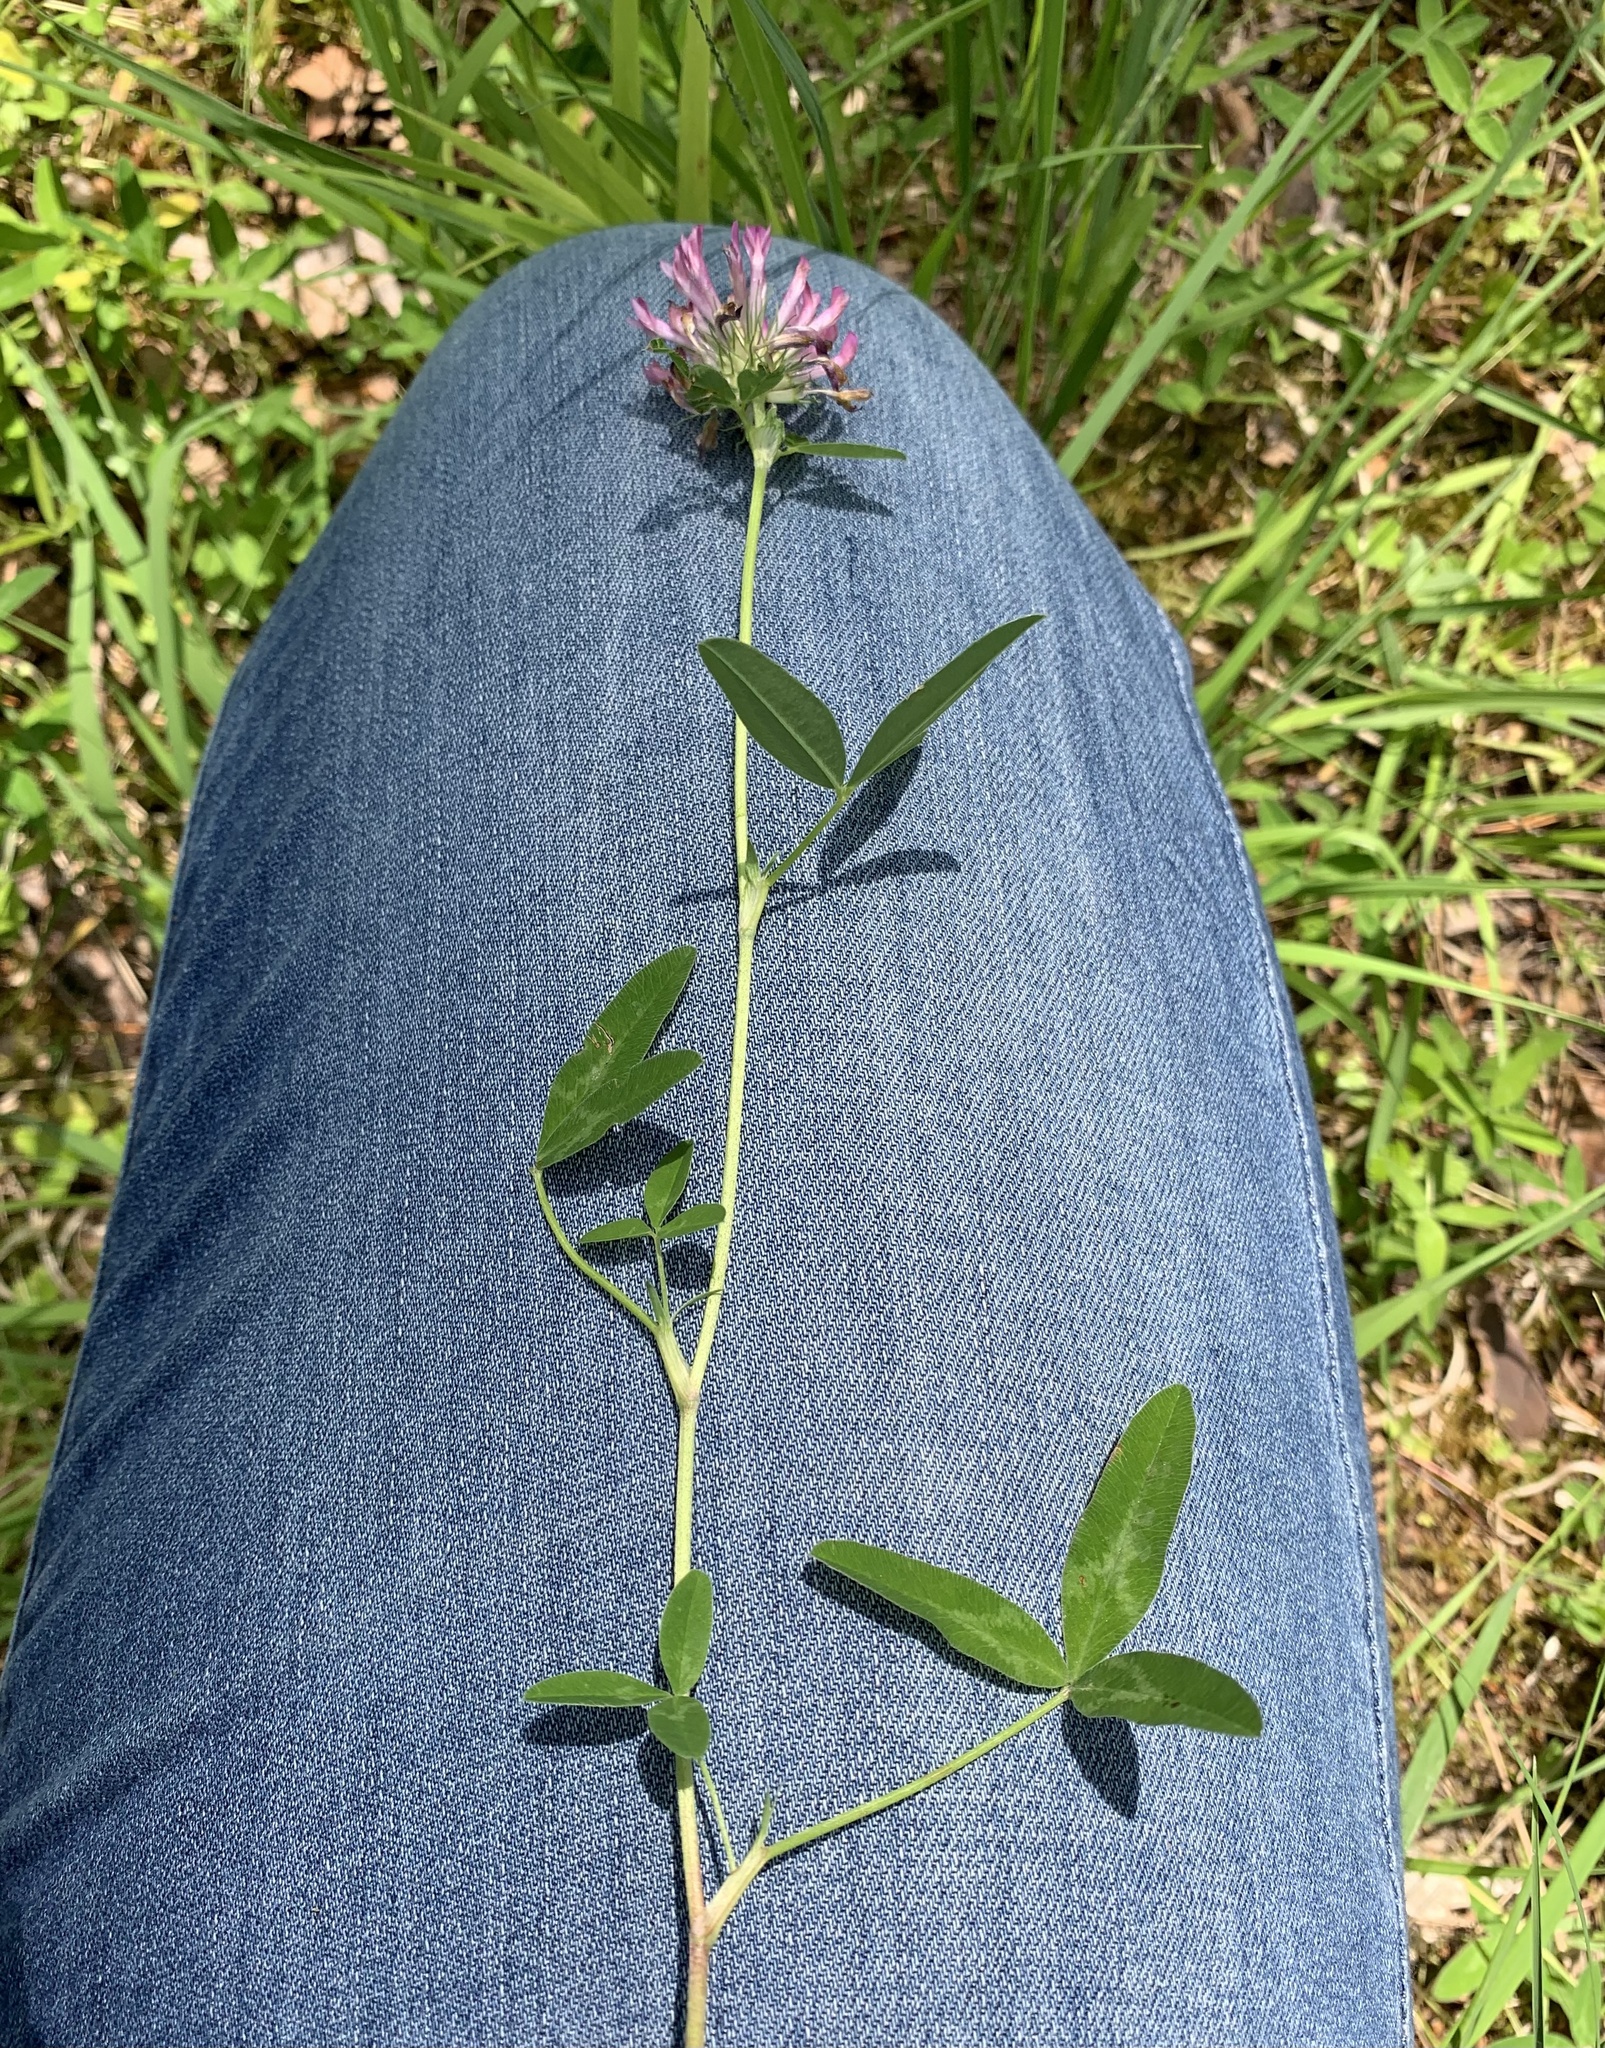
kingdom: Plantae
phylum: Tracheophyta
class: Magnoliopsida
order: Fabales
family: Fabaceae
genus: Trifolium
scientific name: Trifolium medium
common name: Zigzag clover
